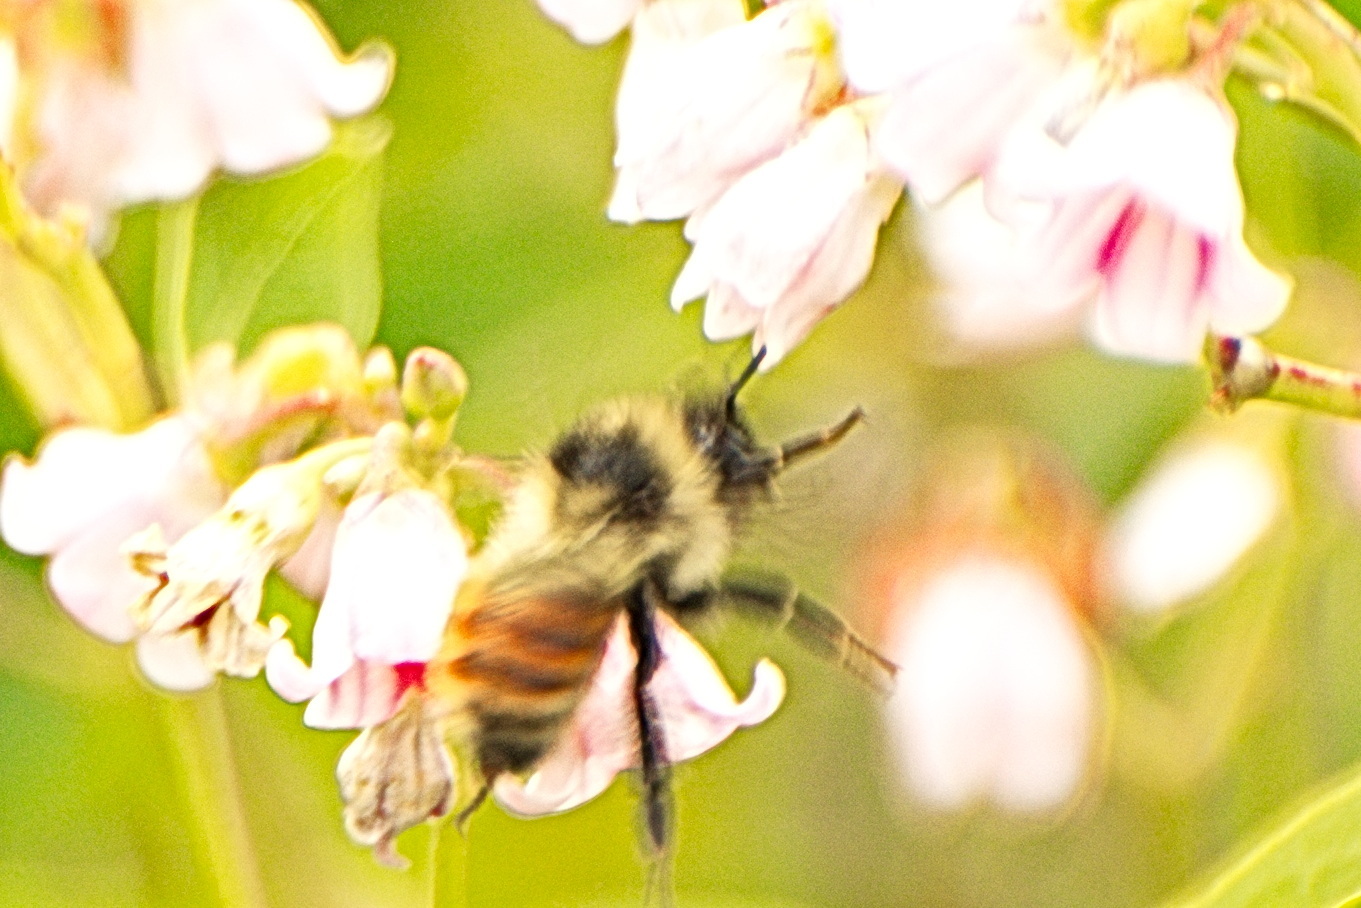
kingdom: Animalia
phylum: Arthropoda
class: Insecta
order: Hymenoptera
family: Apidae
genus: Bombus
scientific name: Bombus rufocinctus
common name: Red-belted bumble bee
